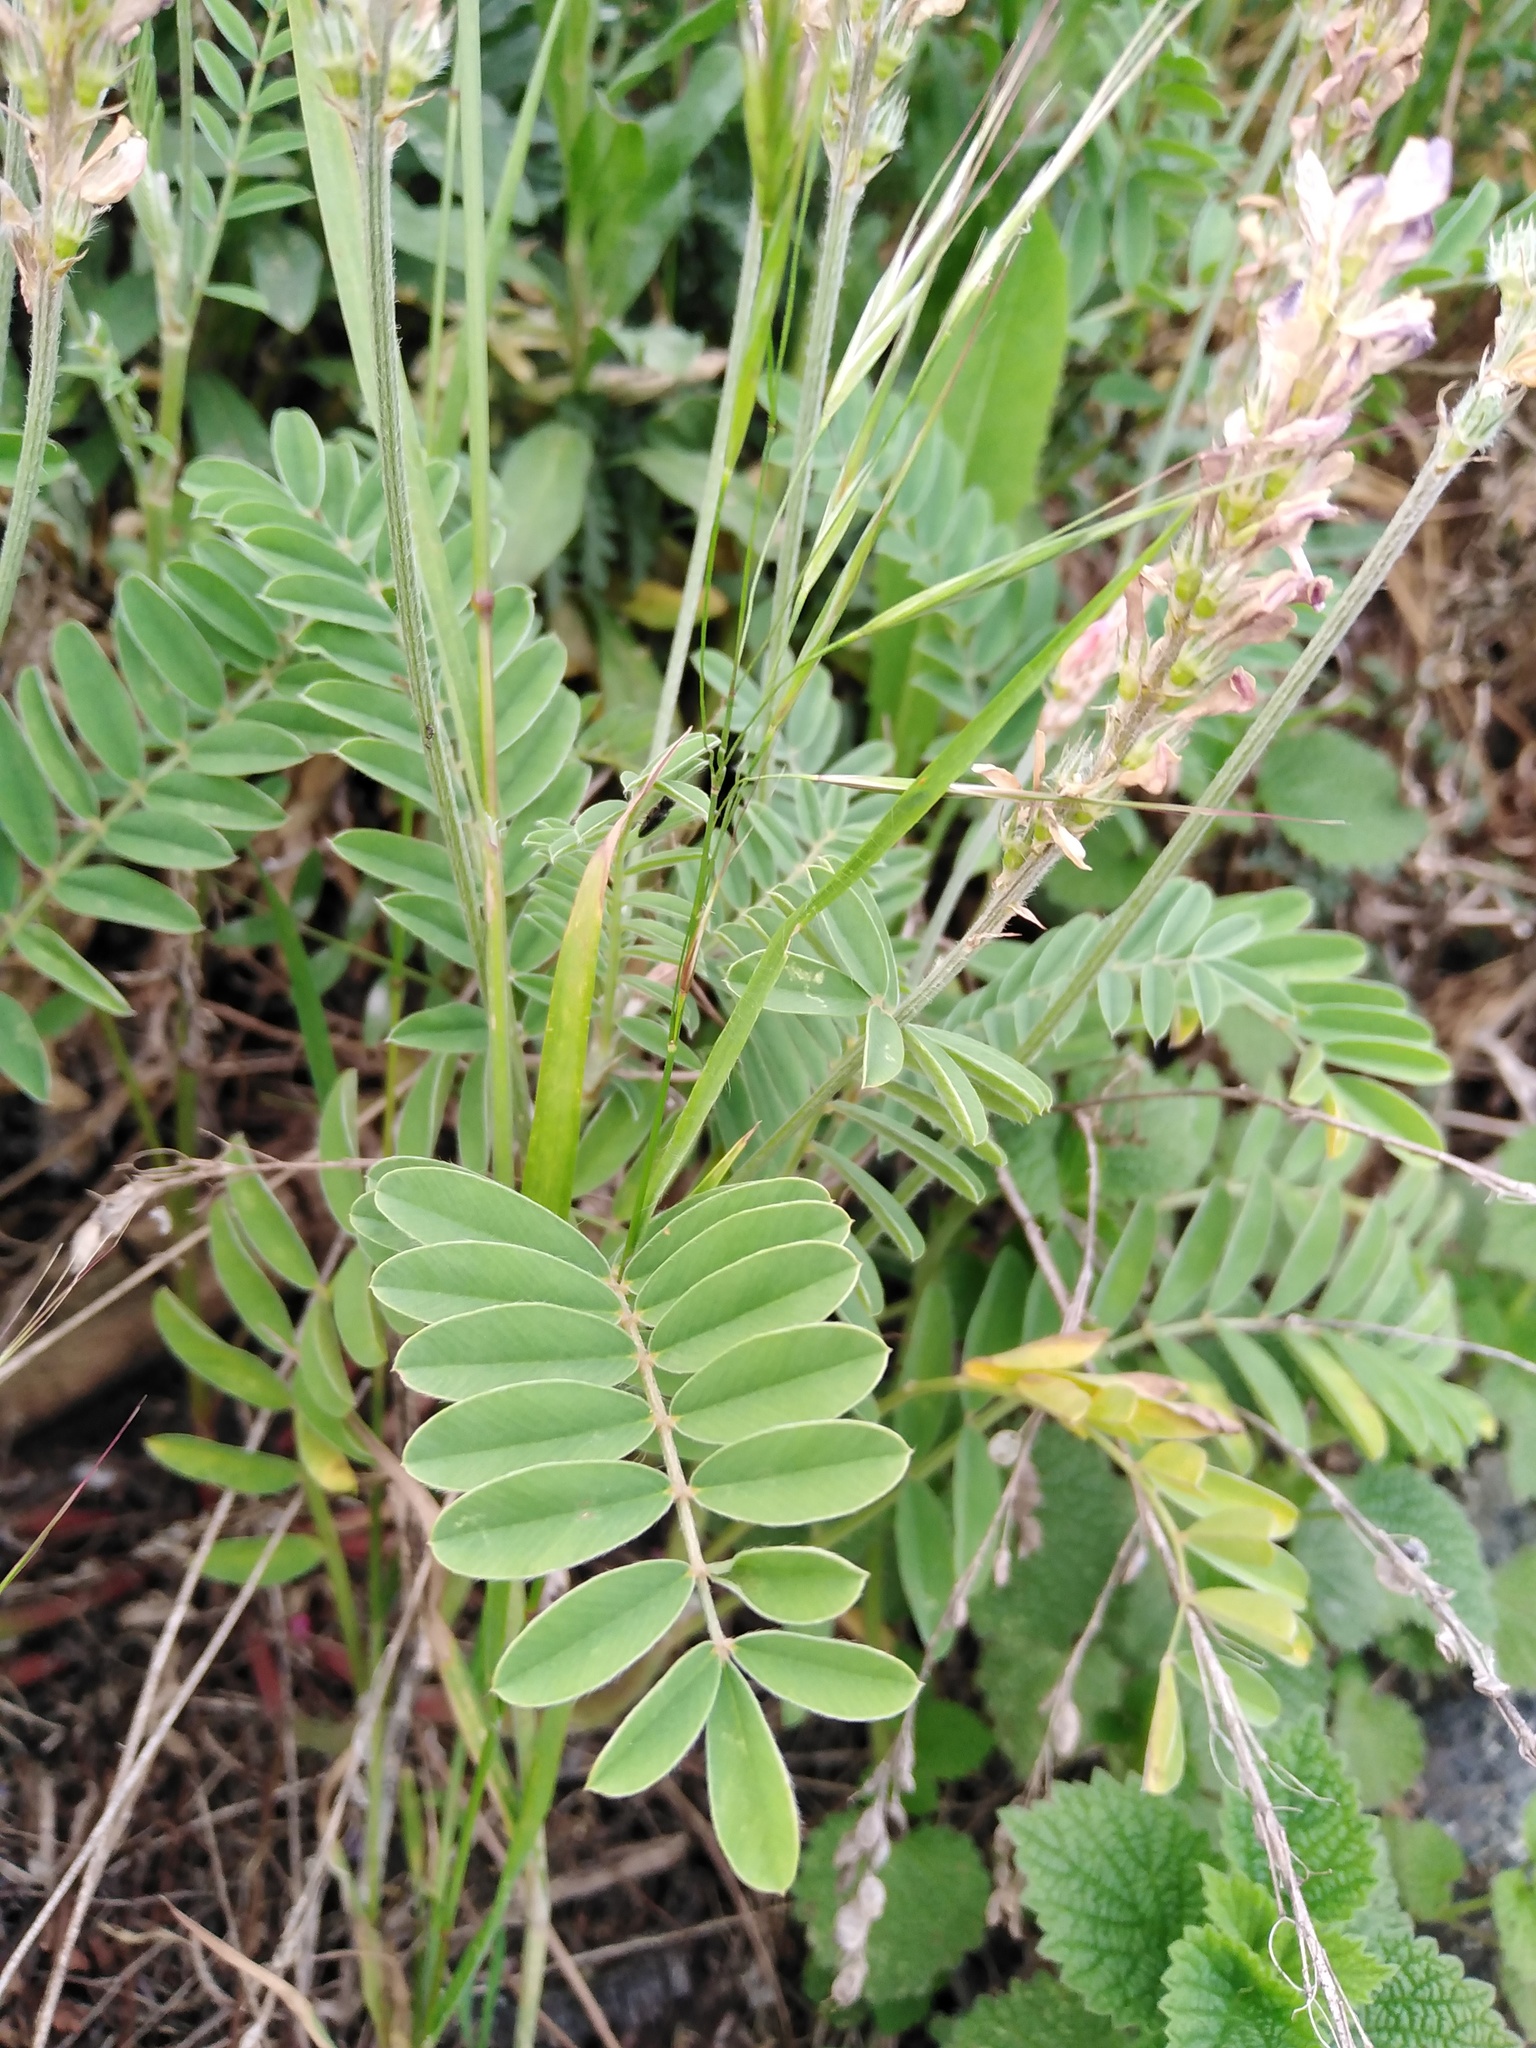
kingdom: Plantae
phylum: Tracheophyta
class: Magnoliopsida
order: Fabales
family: Fabaceae
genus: Onobrychis
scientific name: Onobrychis viciifolia
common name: Sainfoin
